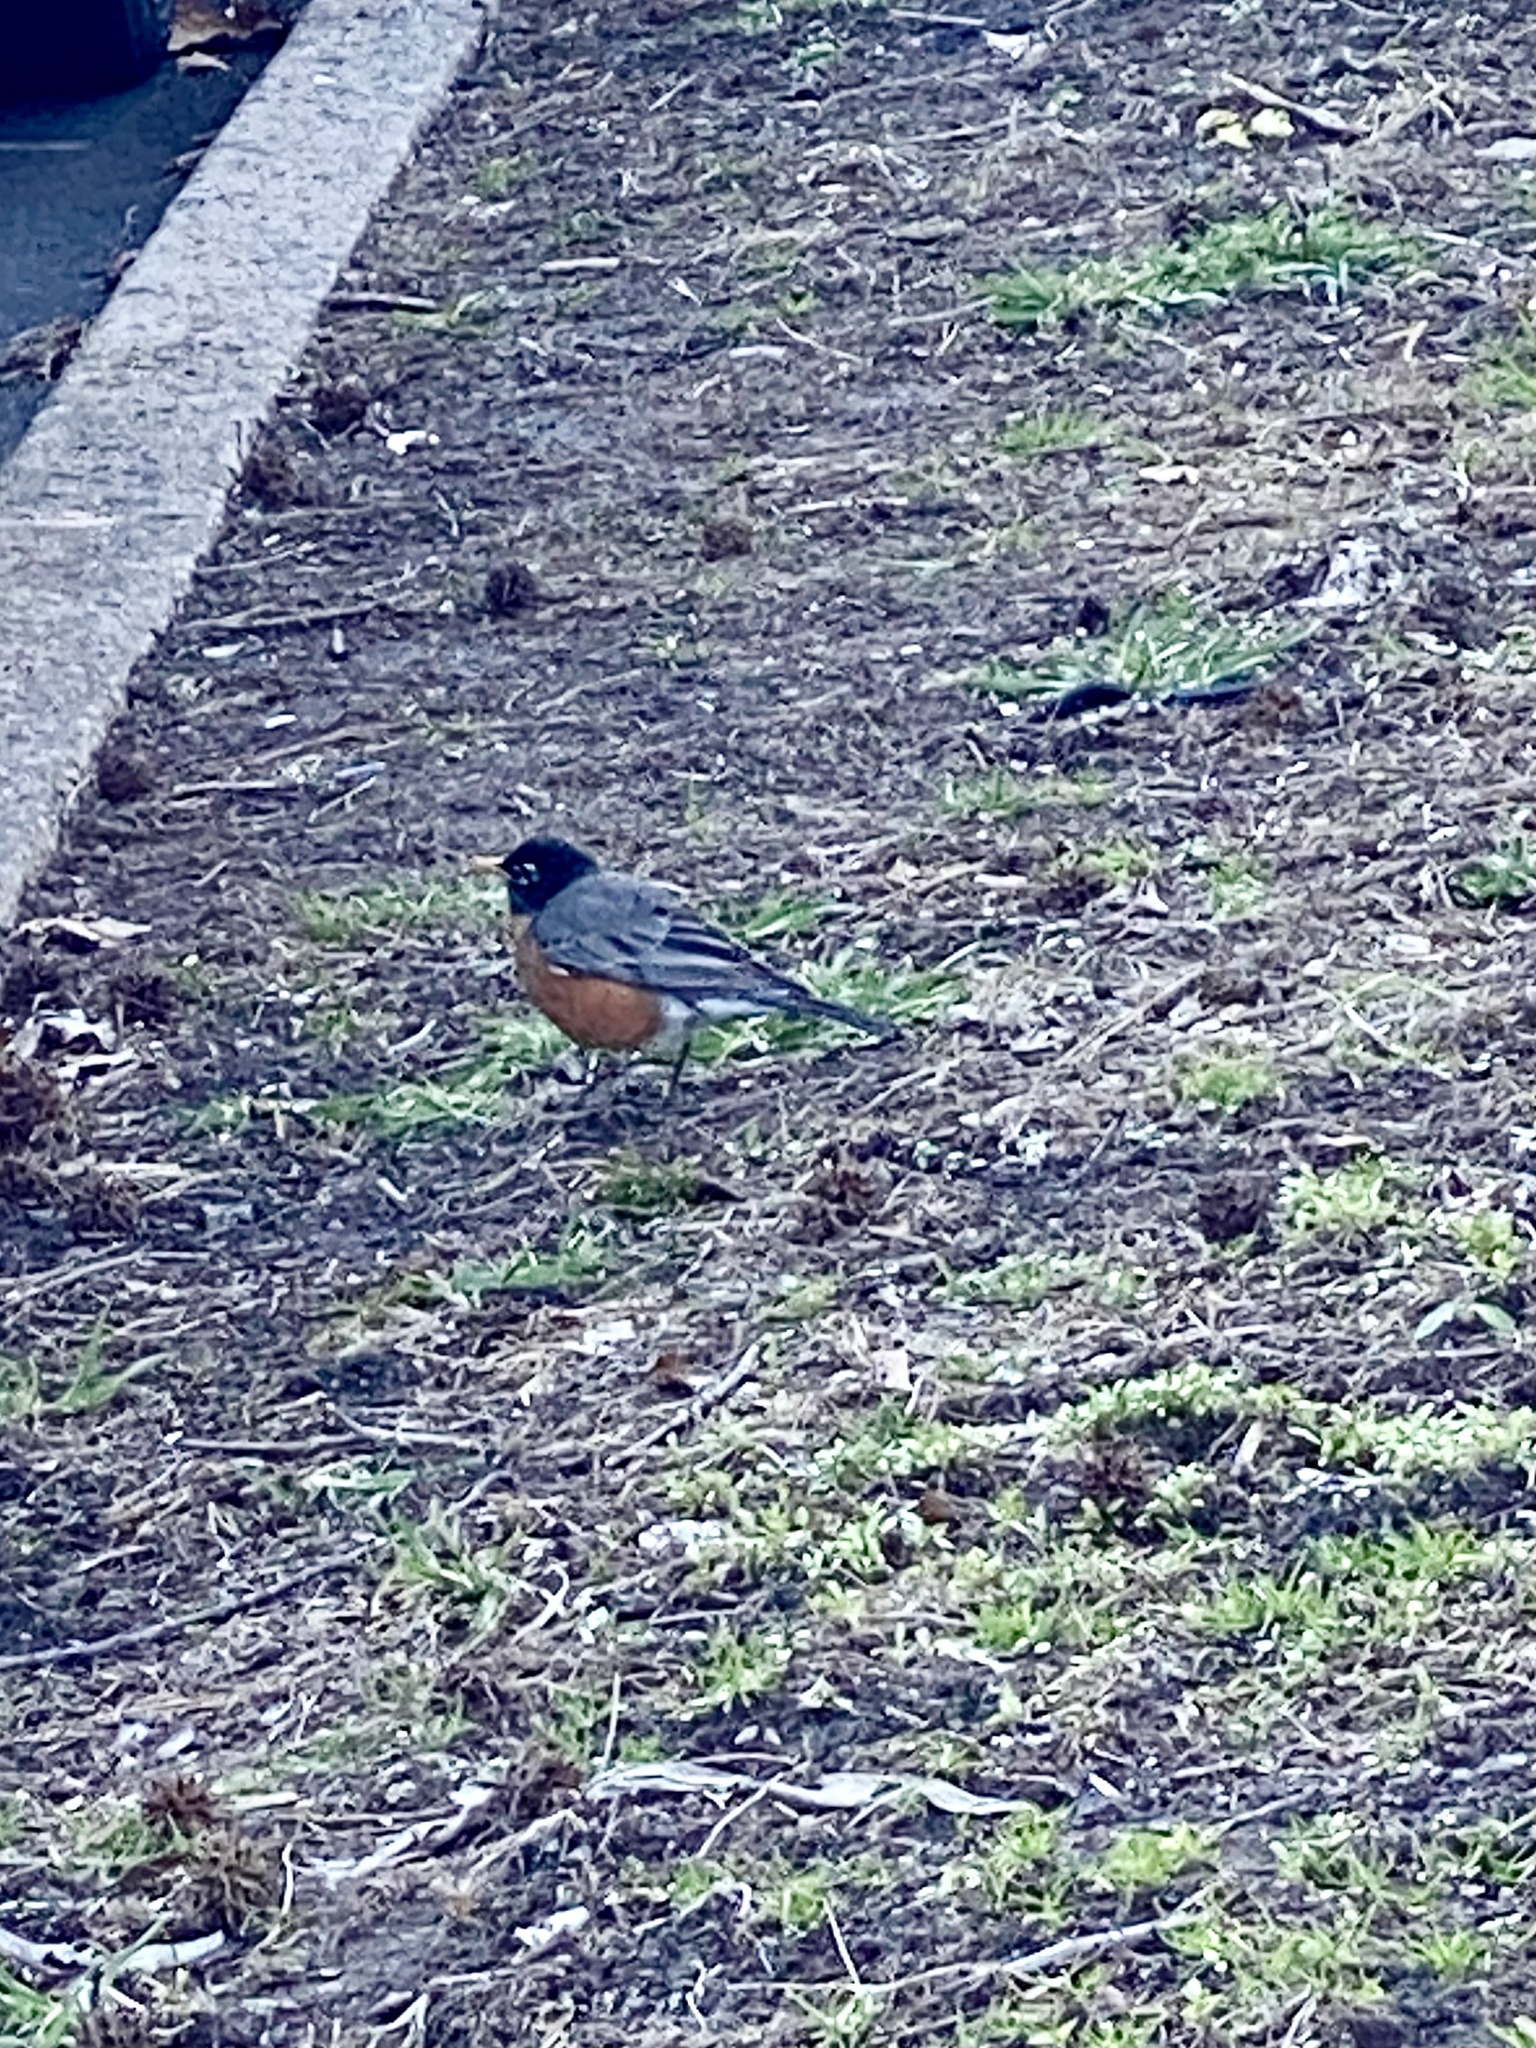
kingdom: Animalia
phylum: Chordata
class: Aves
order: Passeriformes
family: Turdidae
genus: Turdus
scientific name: Turdus migratorius
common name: American robin
